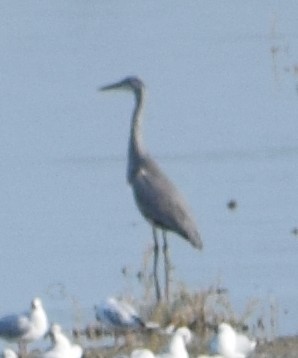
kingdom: Animalia
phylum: Chordata
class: Aves
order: Pelecaniformes
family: Ardeidae
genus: Ardea
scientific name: Ardea cinerea
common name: Grey heron
